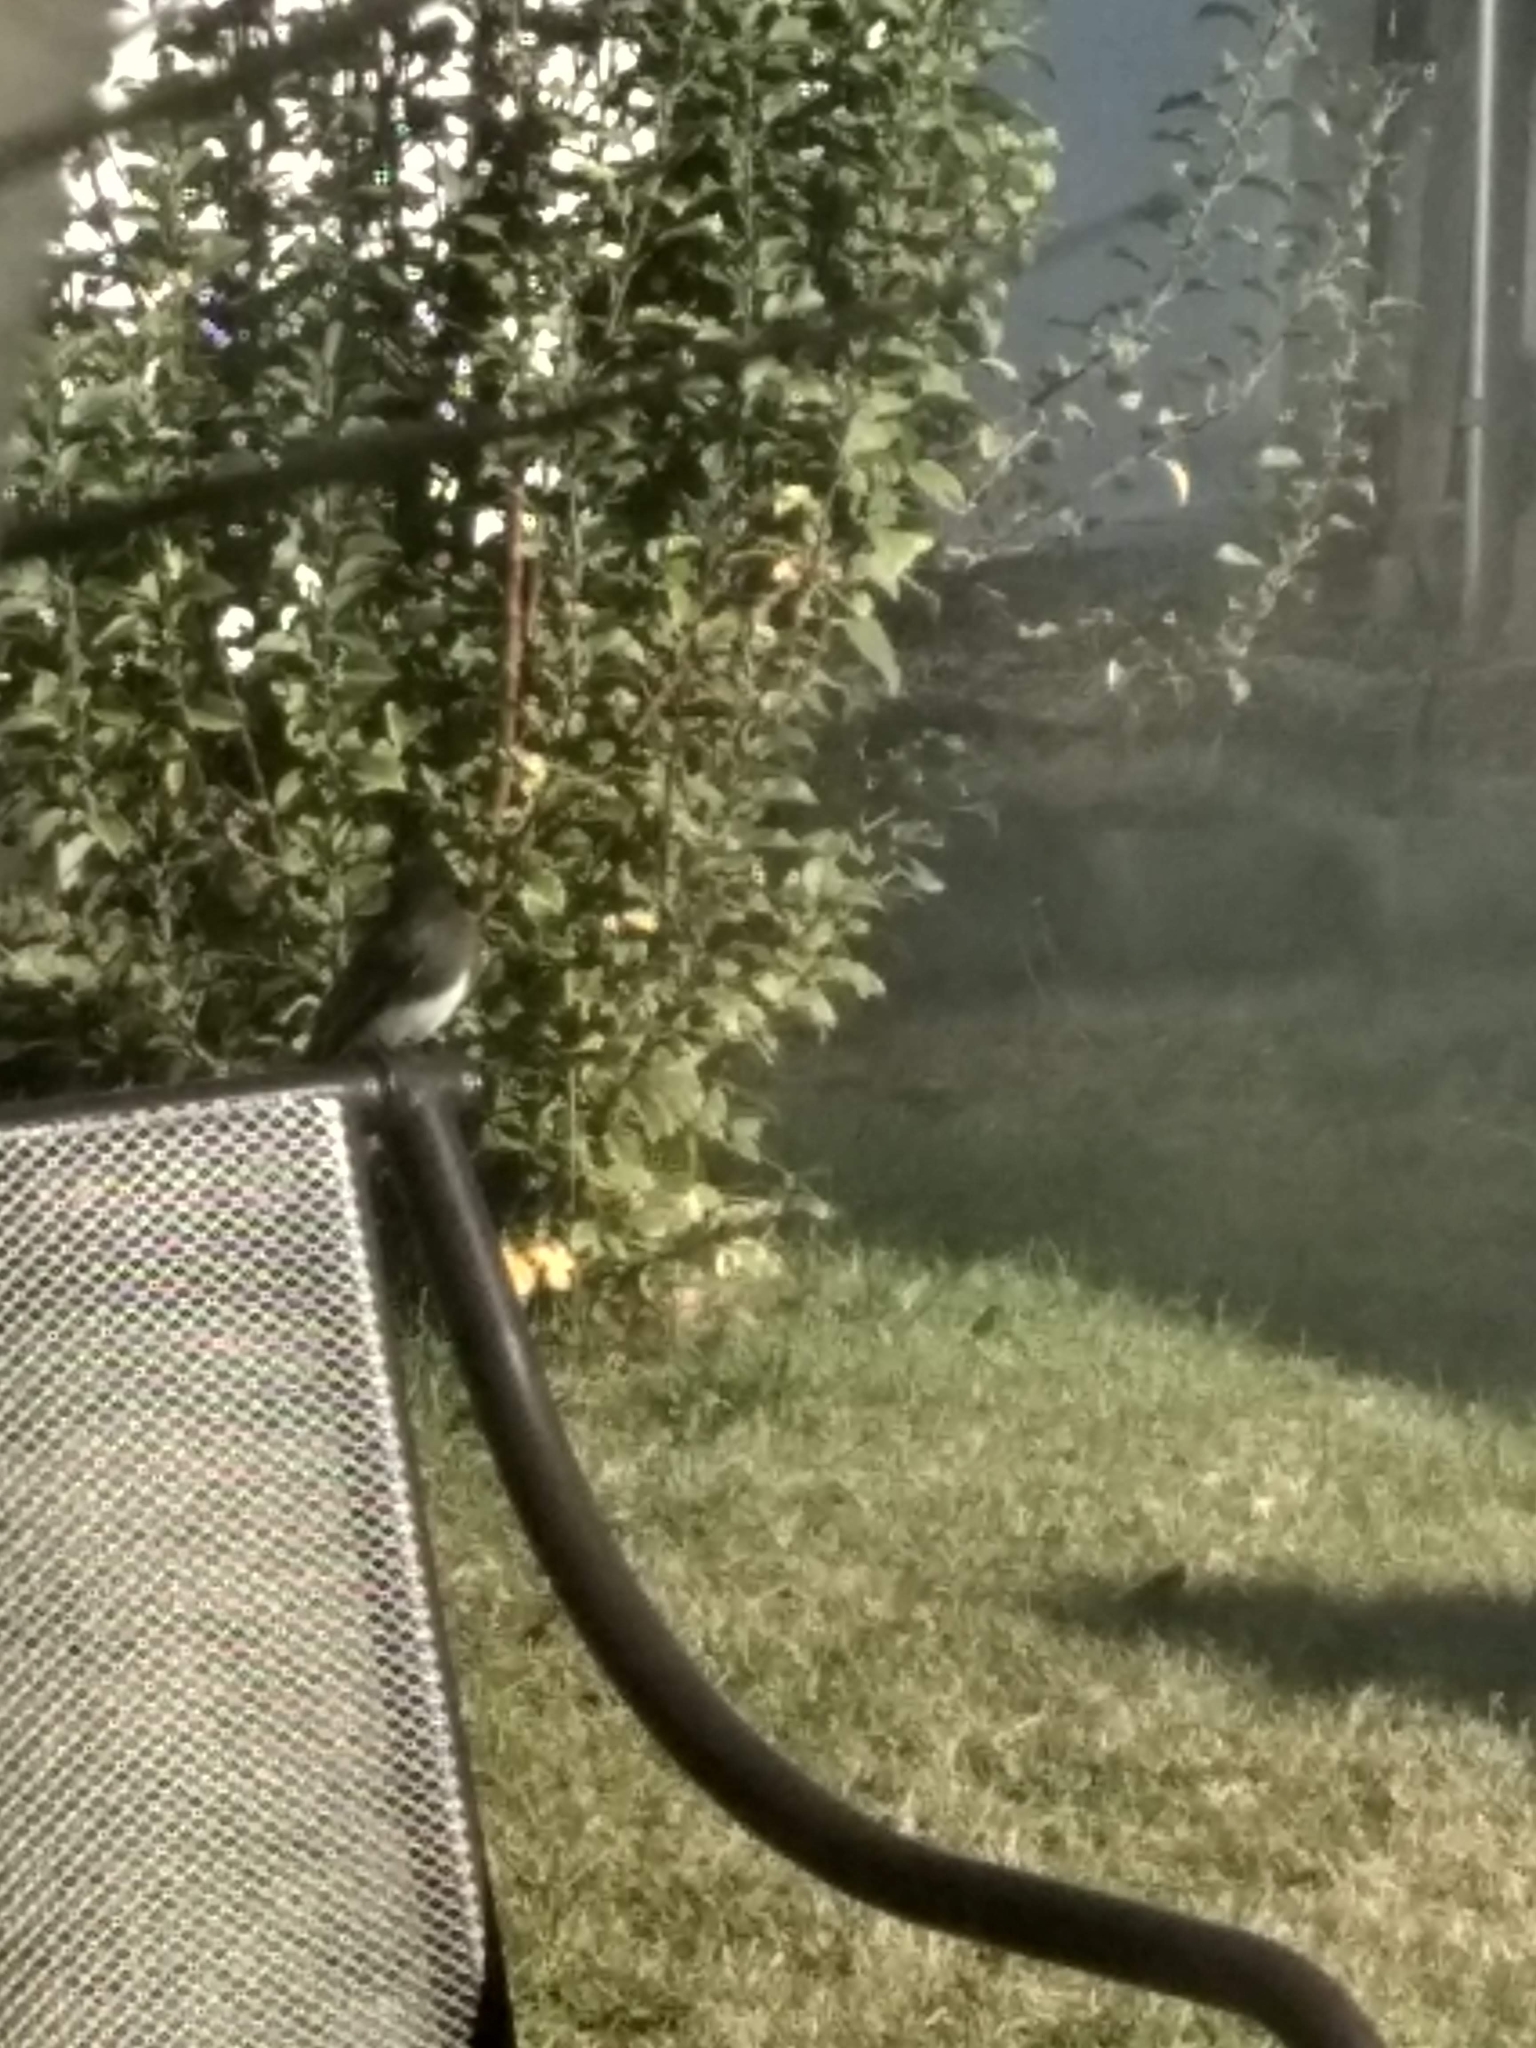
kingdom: Animalia
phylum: Chordata
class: Aves
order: Passeriformes
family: Tyrannidae
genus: Sayornis
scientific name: Sayornis nigricans
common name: Black phoebe
